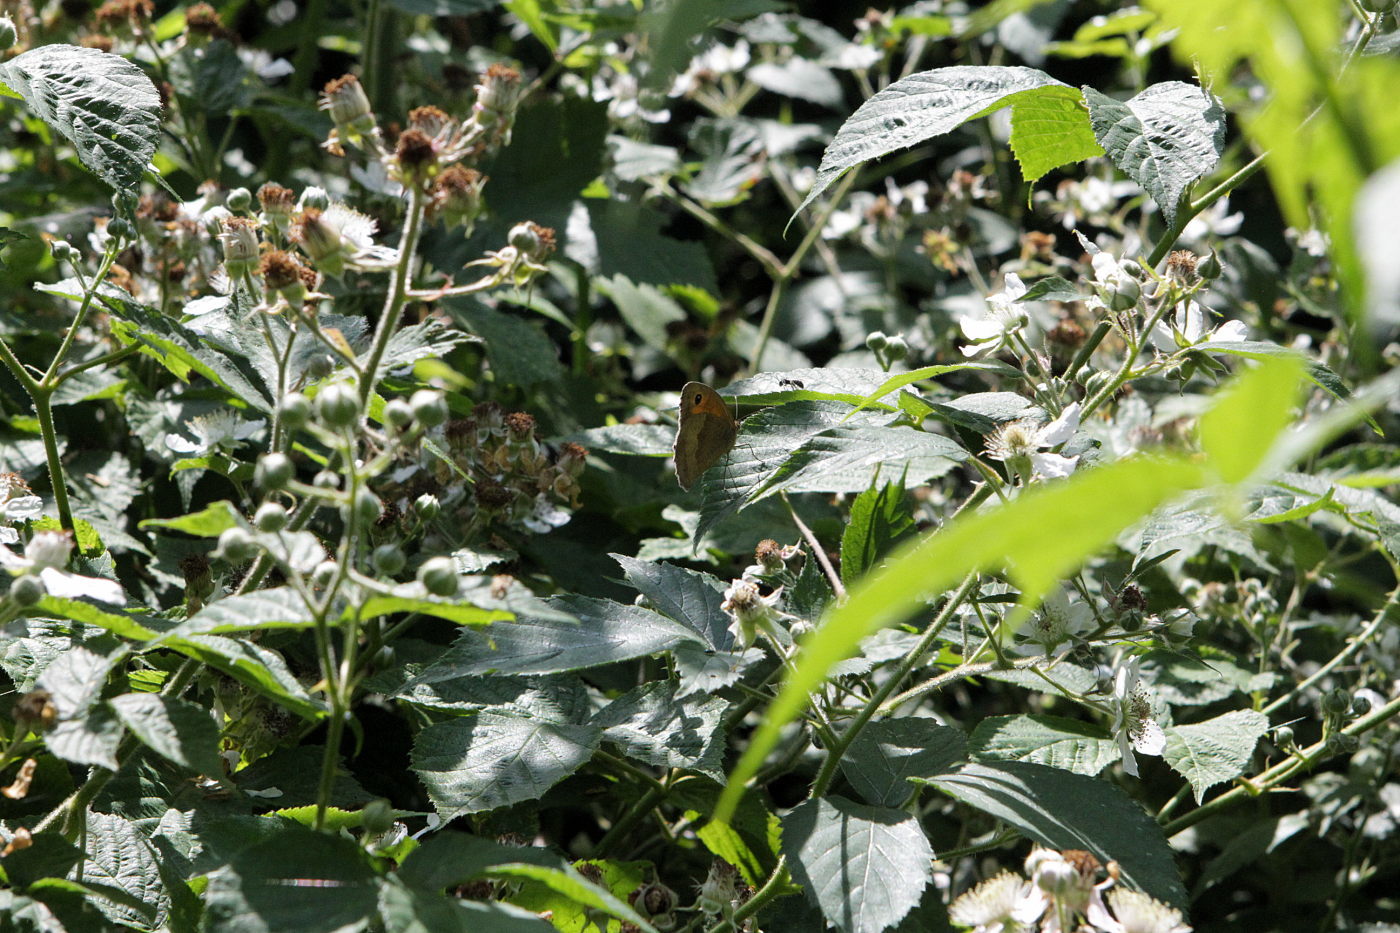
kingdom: Animalia
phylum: Arthropoda
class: Insecta
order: Lepidoptera
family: Nymphalidae
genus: Maniola
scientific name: Maniola jurtina
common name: Meadow brown
